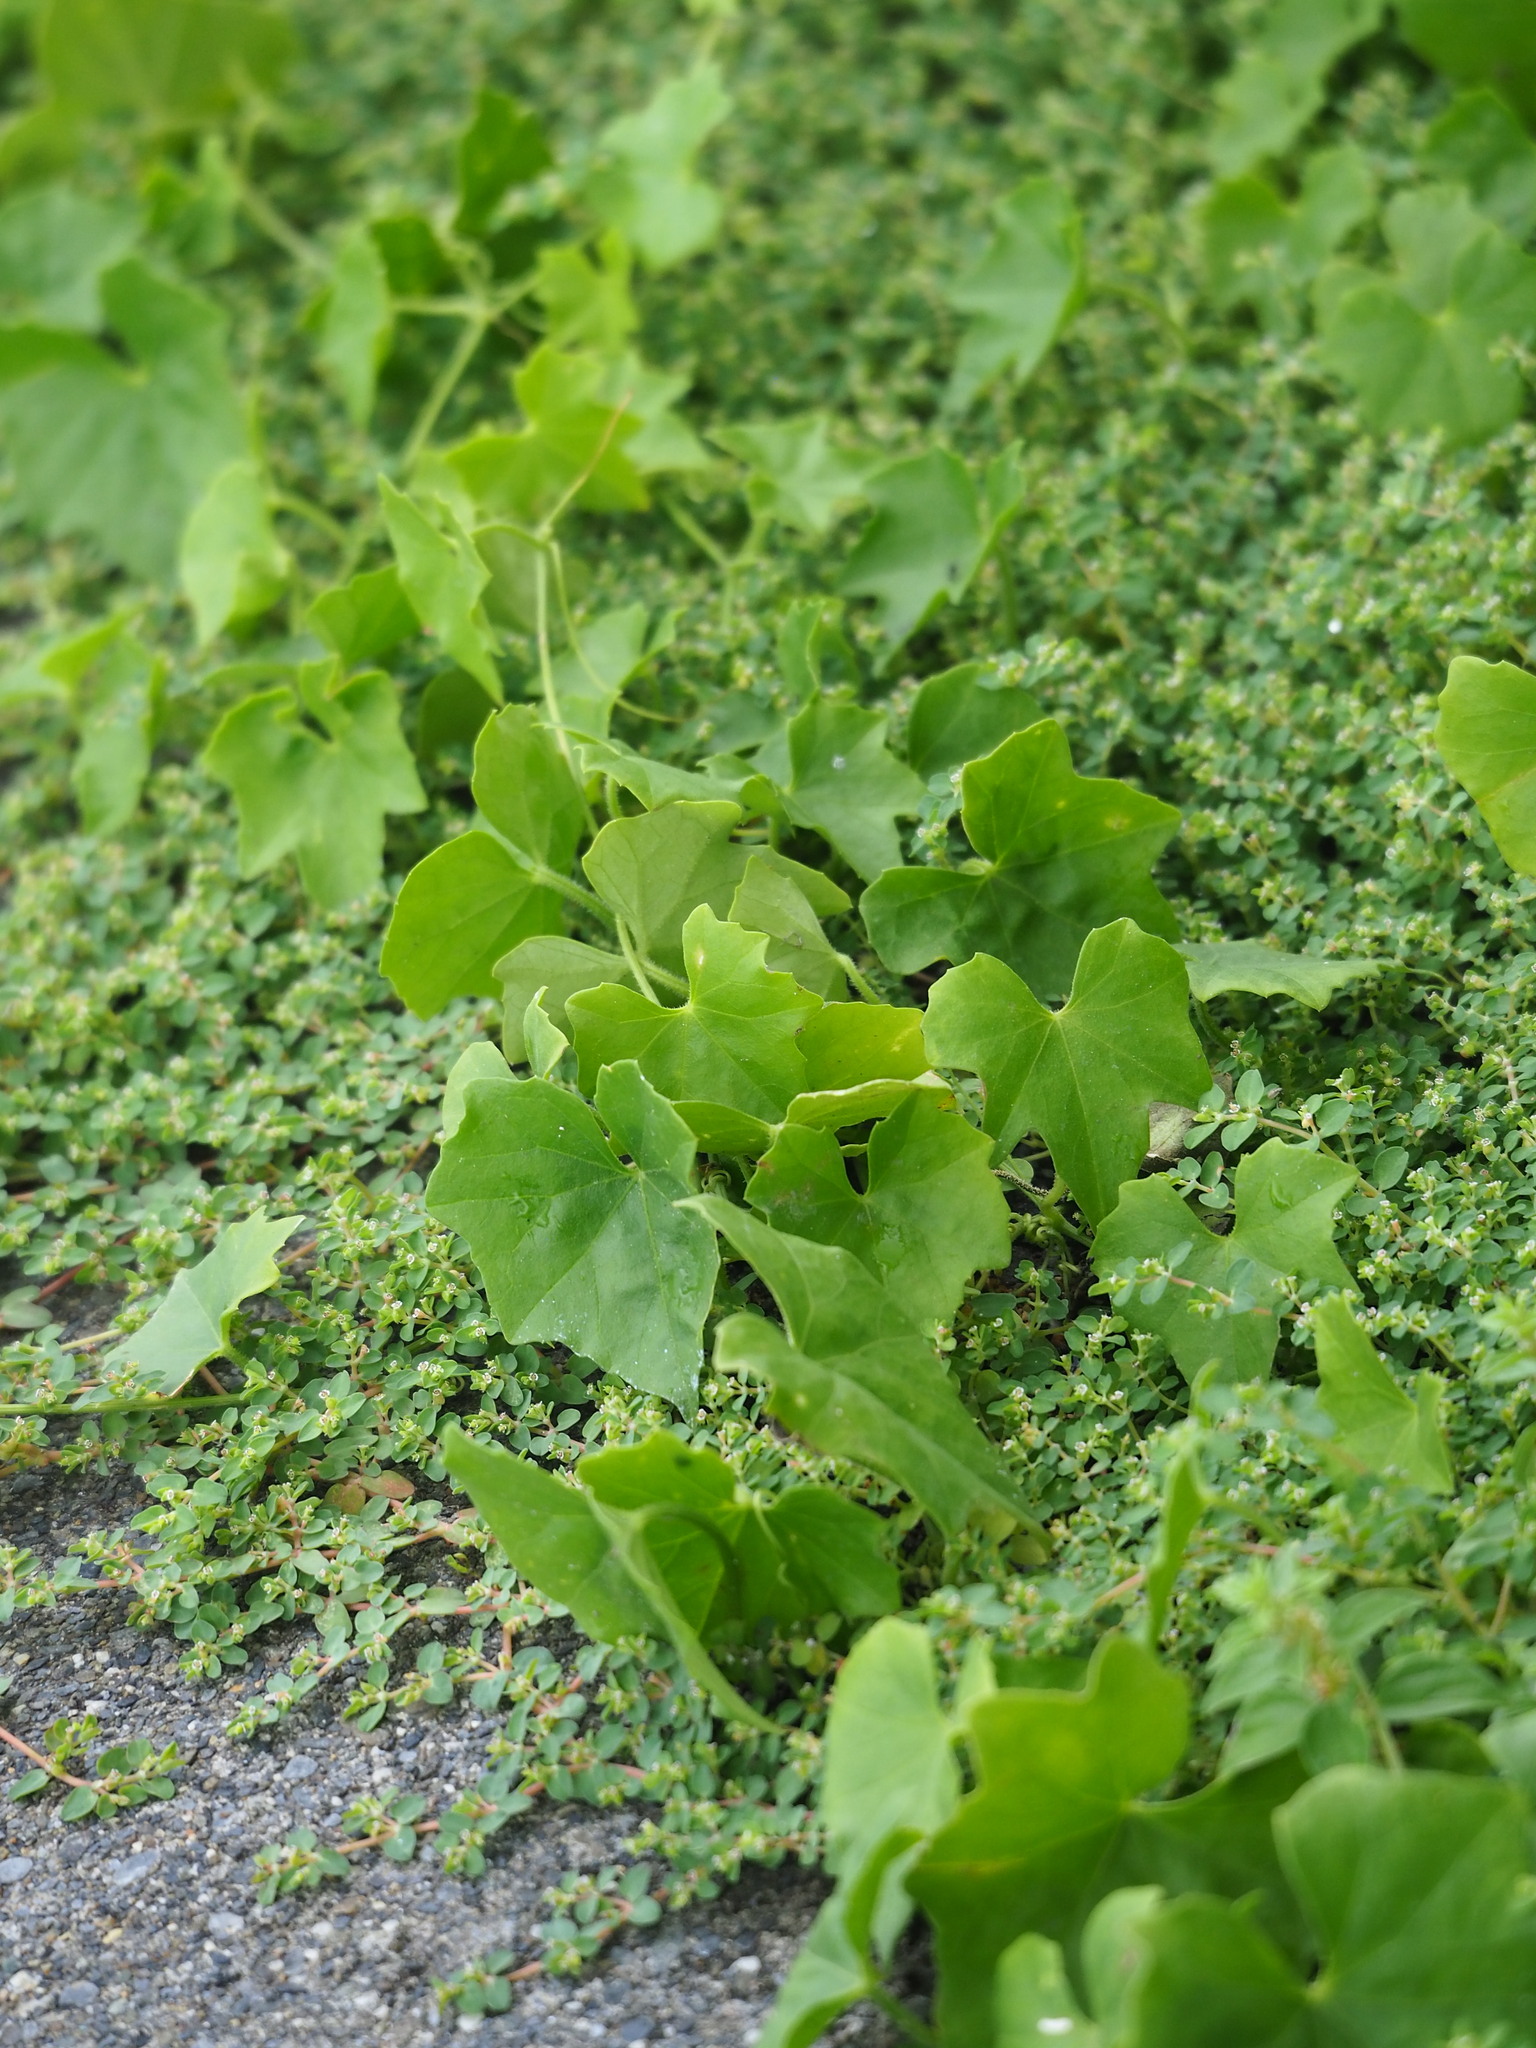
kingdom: Plantae
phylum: Tracheophyta
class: Magnoliopsida
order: Cucurbitales
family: Cucurbitaceae
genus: Melothria
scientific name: Melothria pendula
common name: Creeping-cucumber
